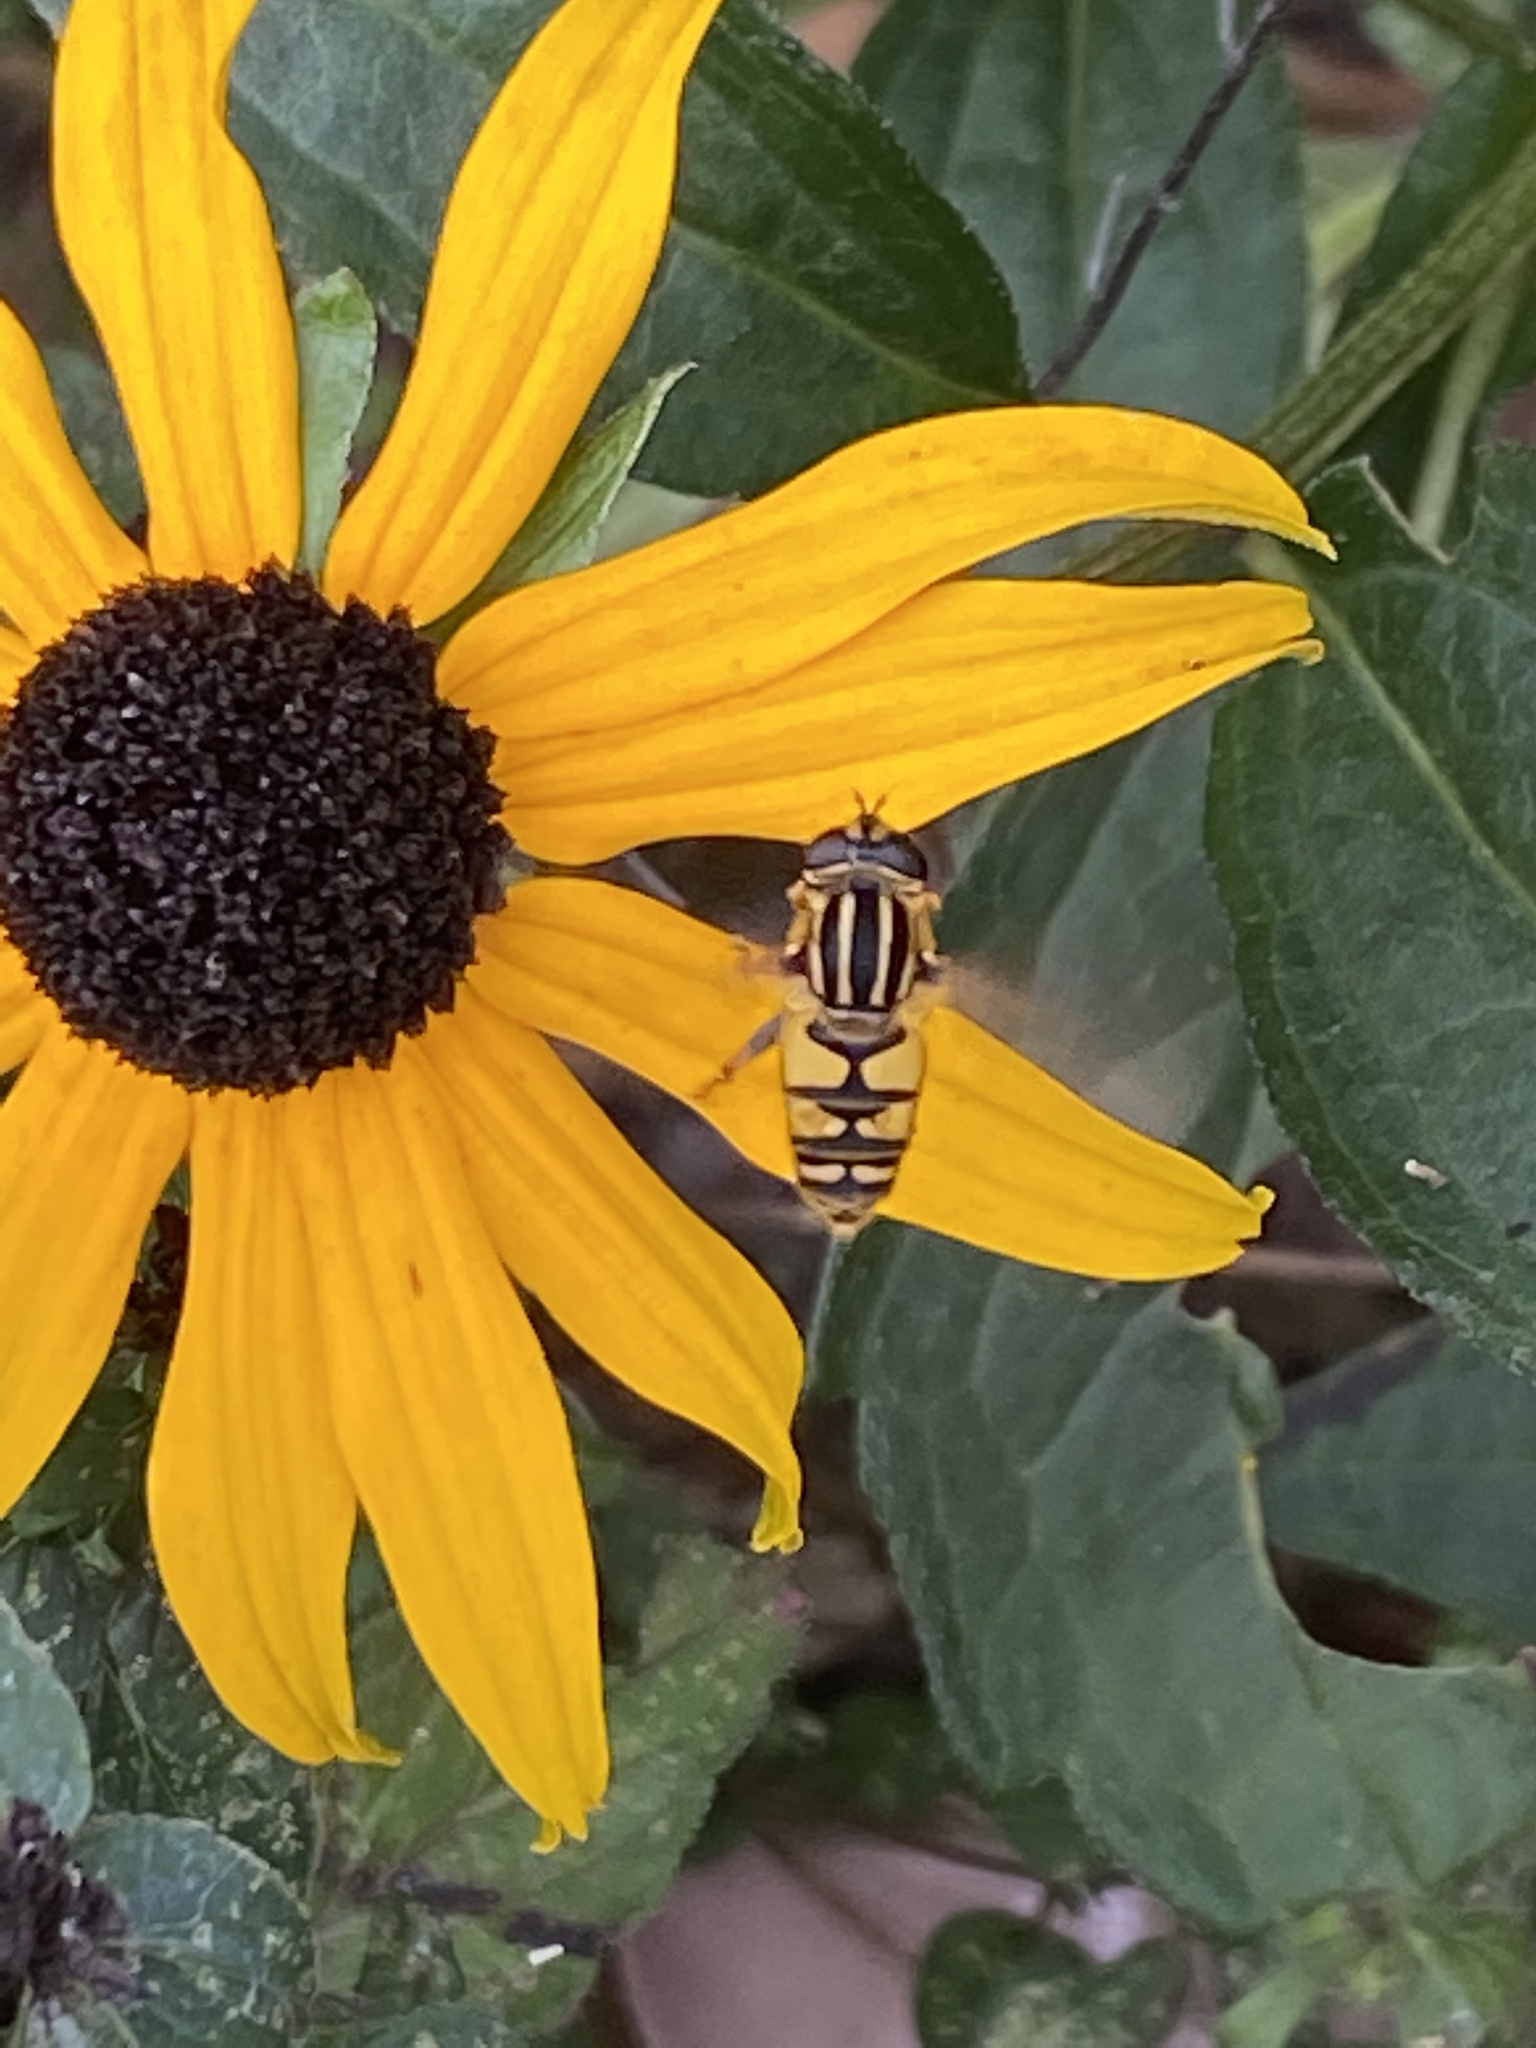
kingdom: Animalia
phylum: Arthropoda
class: Insecta
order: Diptera
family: Syrphidae
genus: Helophilus
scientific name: Helophilus pendulus
